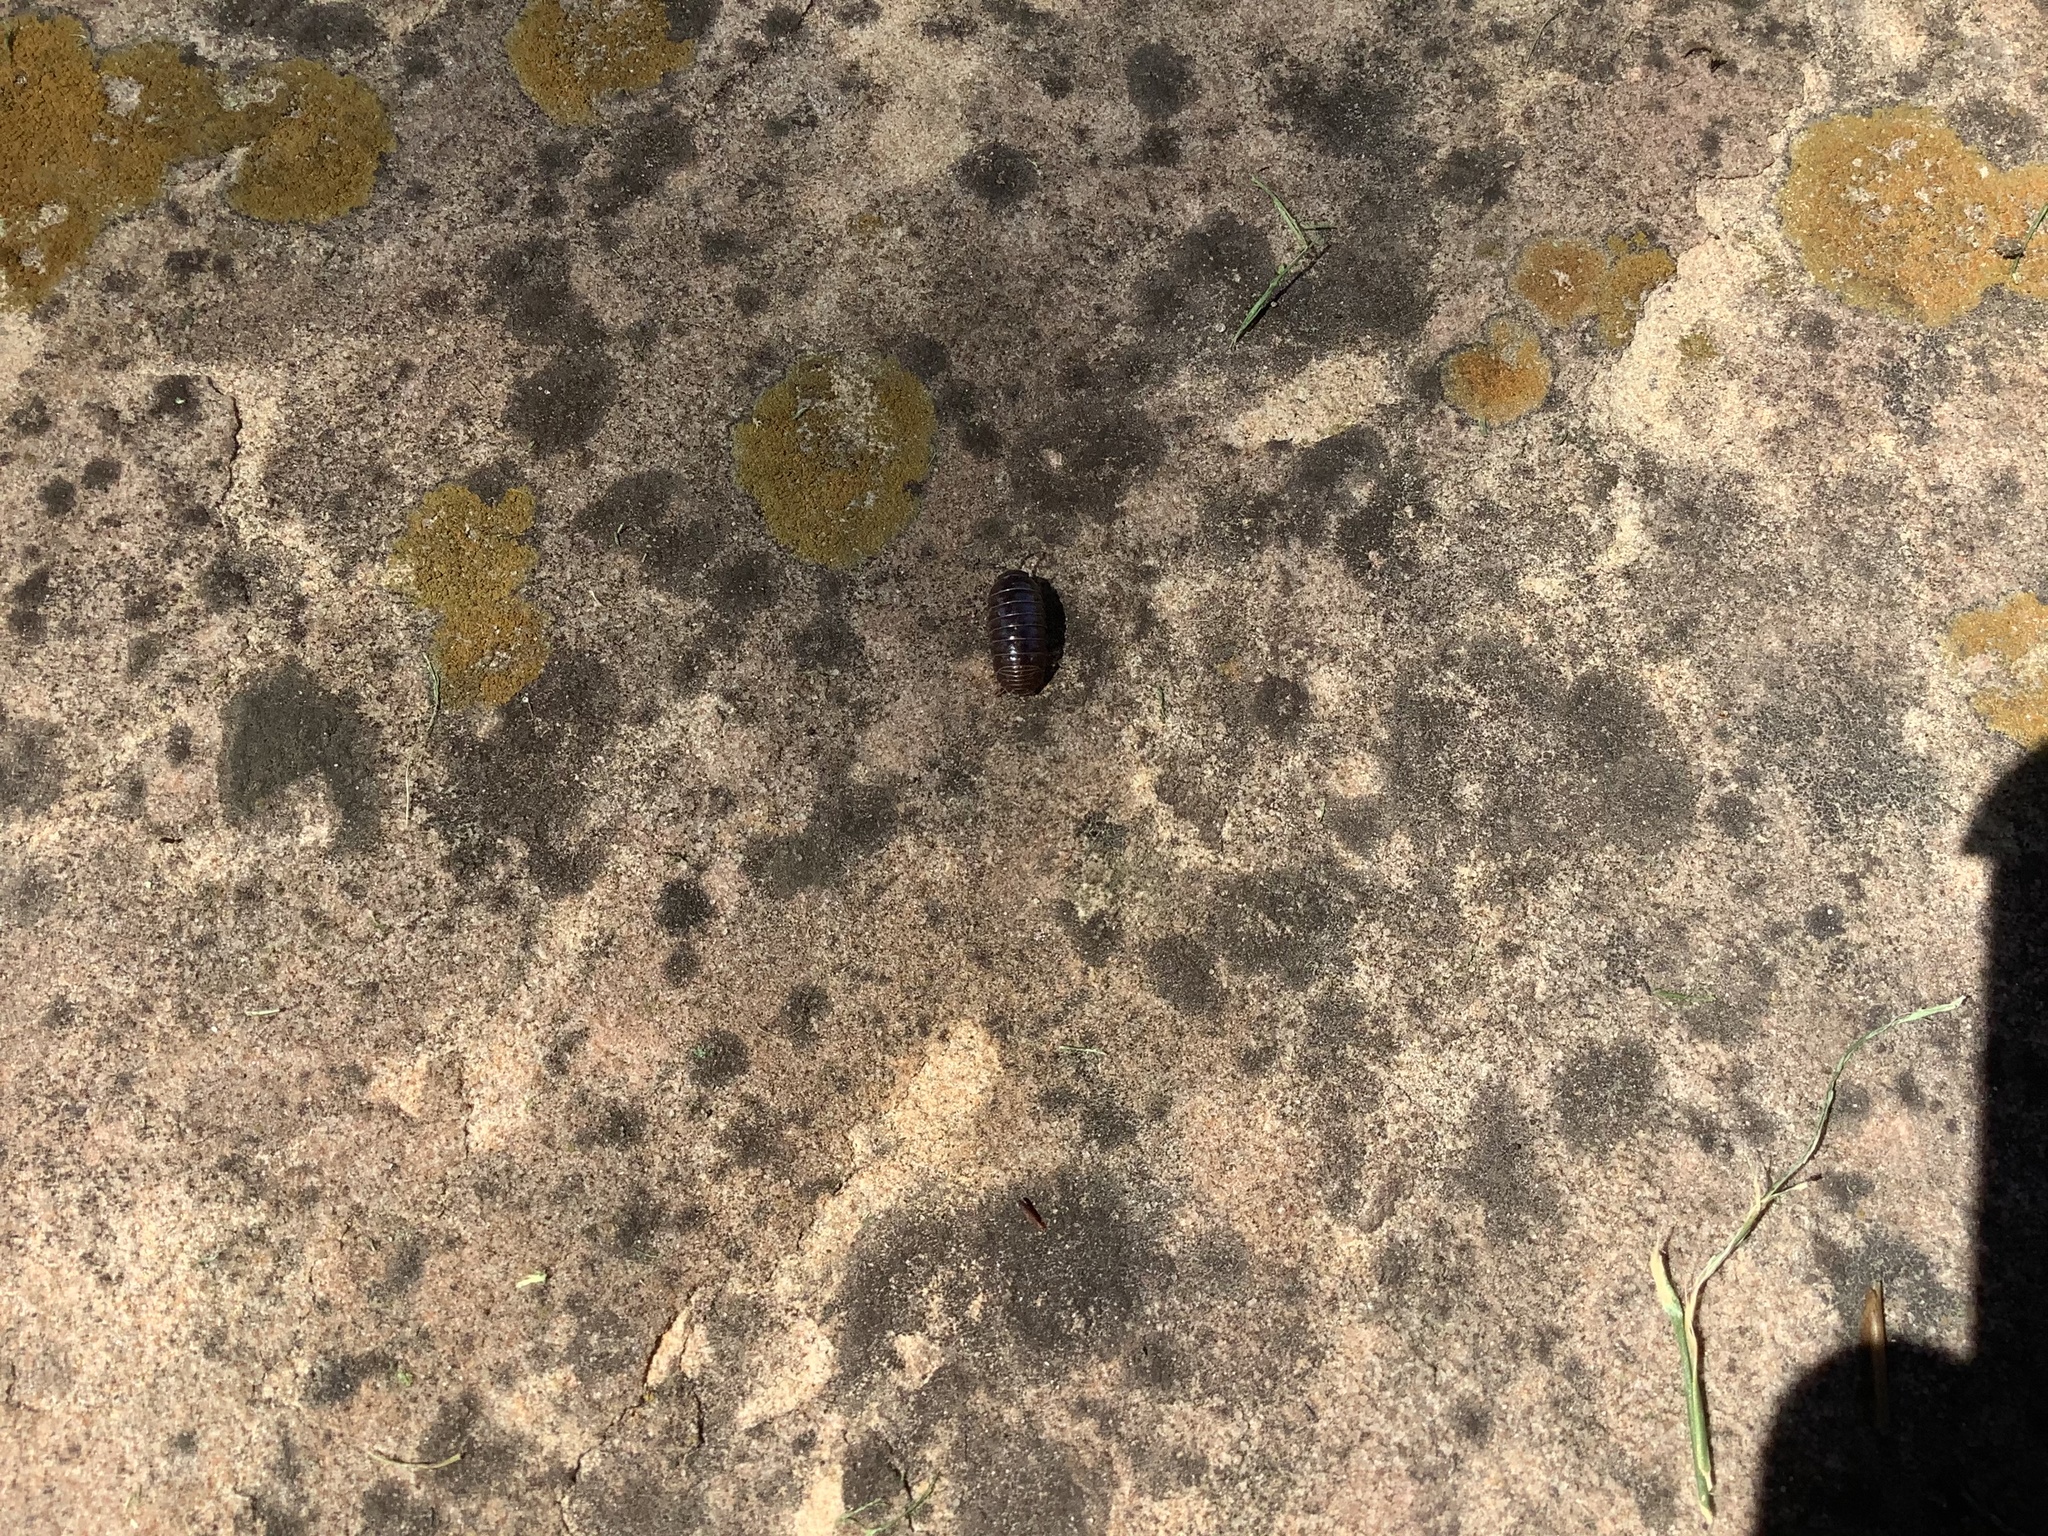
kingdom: Animalia
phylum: Arthropoda
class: Malacostraca
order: Isopoda
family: Armadillidiidae
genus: Armadillidium
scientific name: Armadillidium vulgare
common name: Common pill woodlouse
